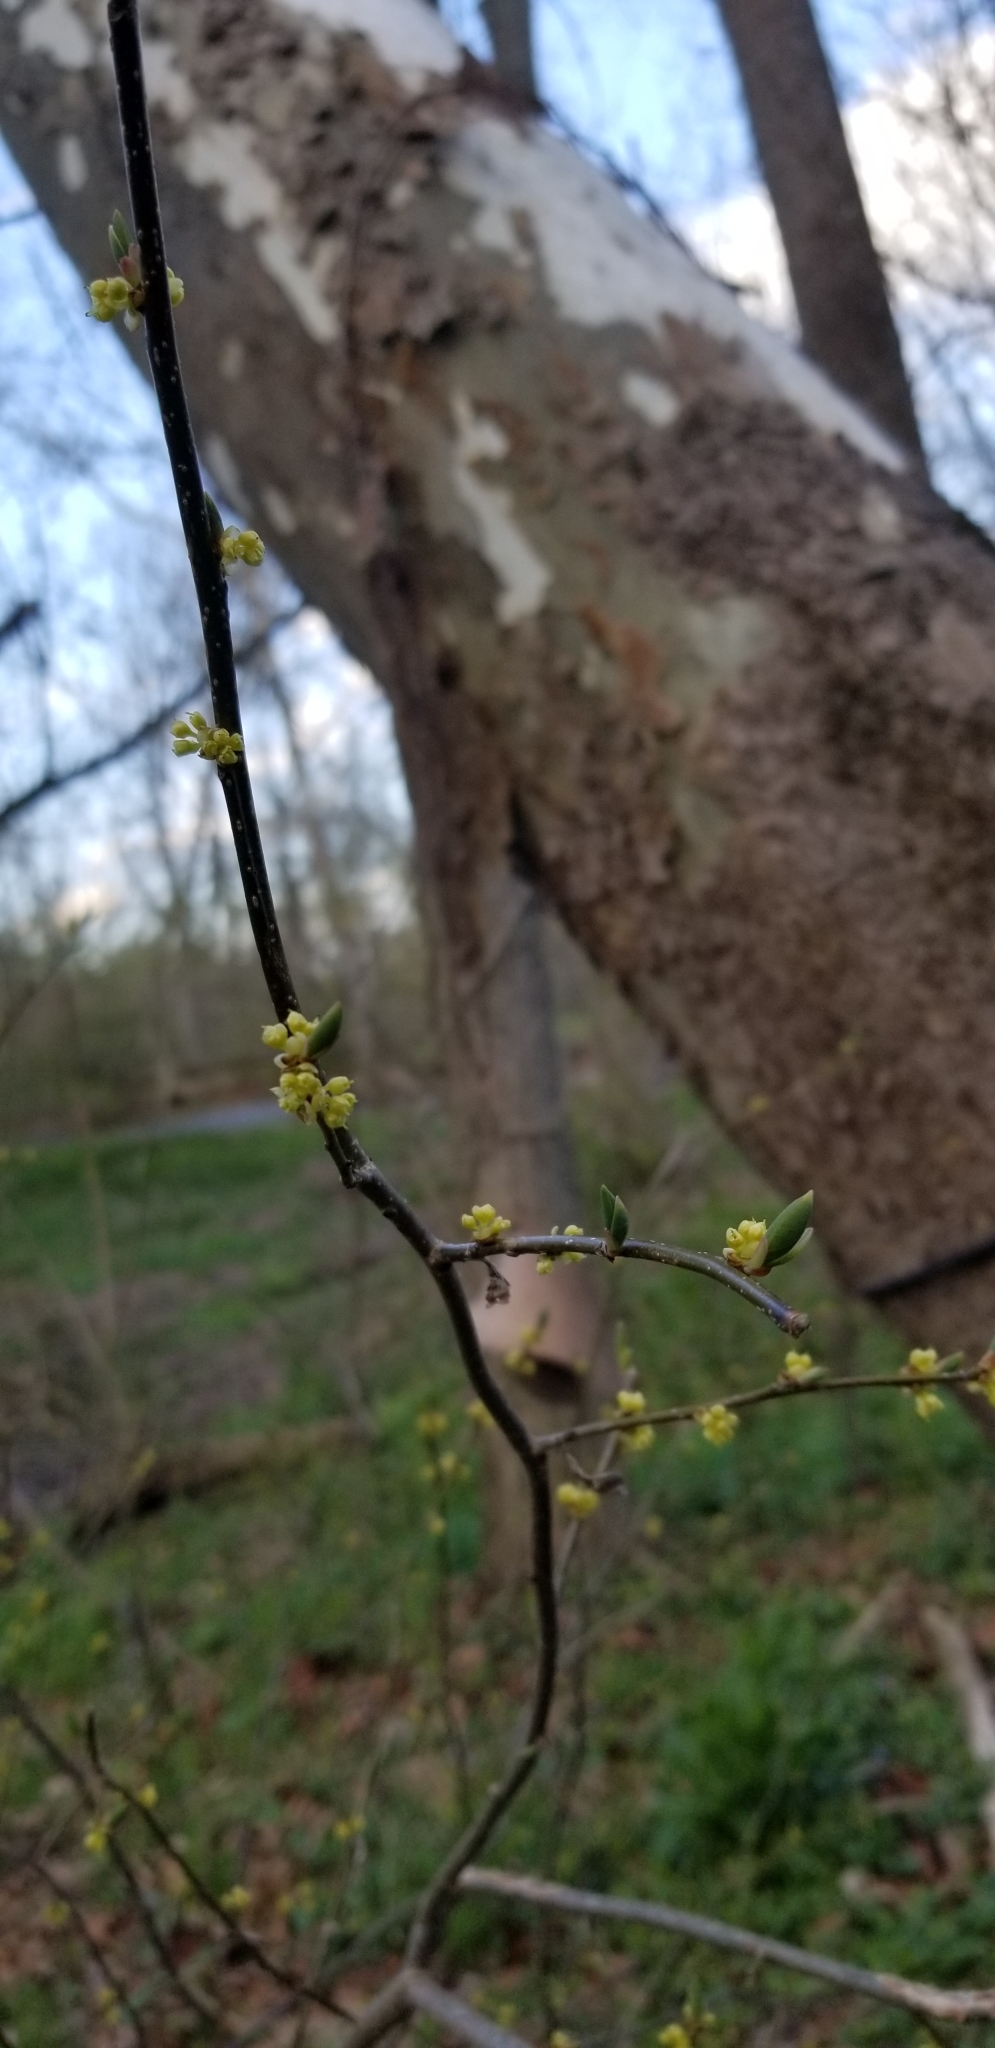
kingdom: Plantae
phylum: Tracheophyta
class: Magnoliopsida
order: Laurales
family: Lauraceae
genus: Lindera
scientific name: Lindera benzoin
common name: Spicebush
